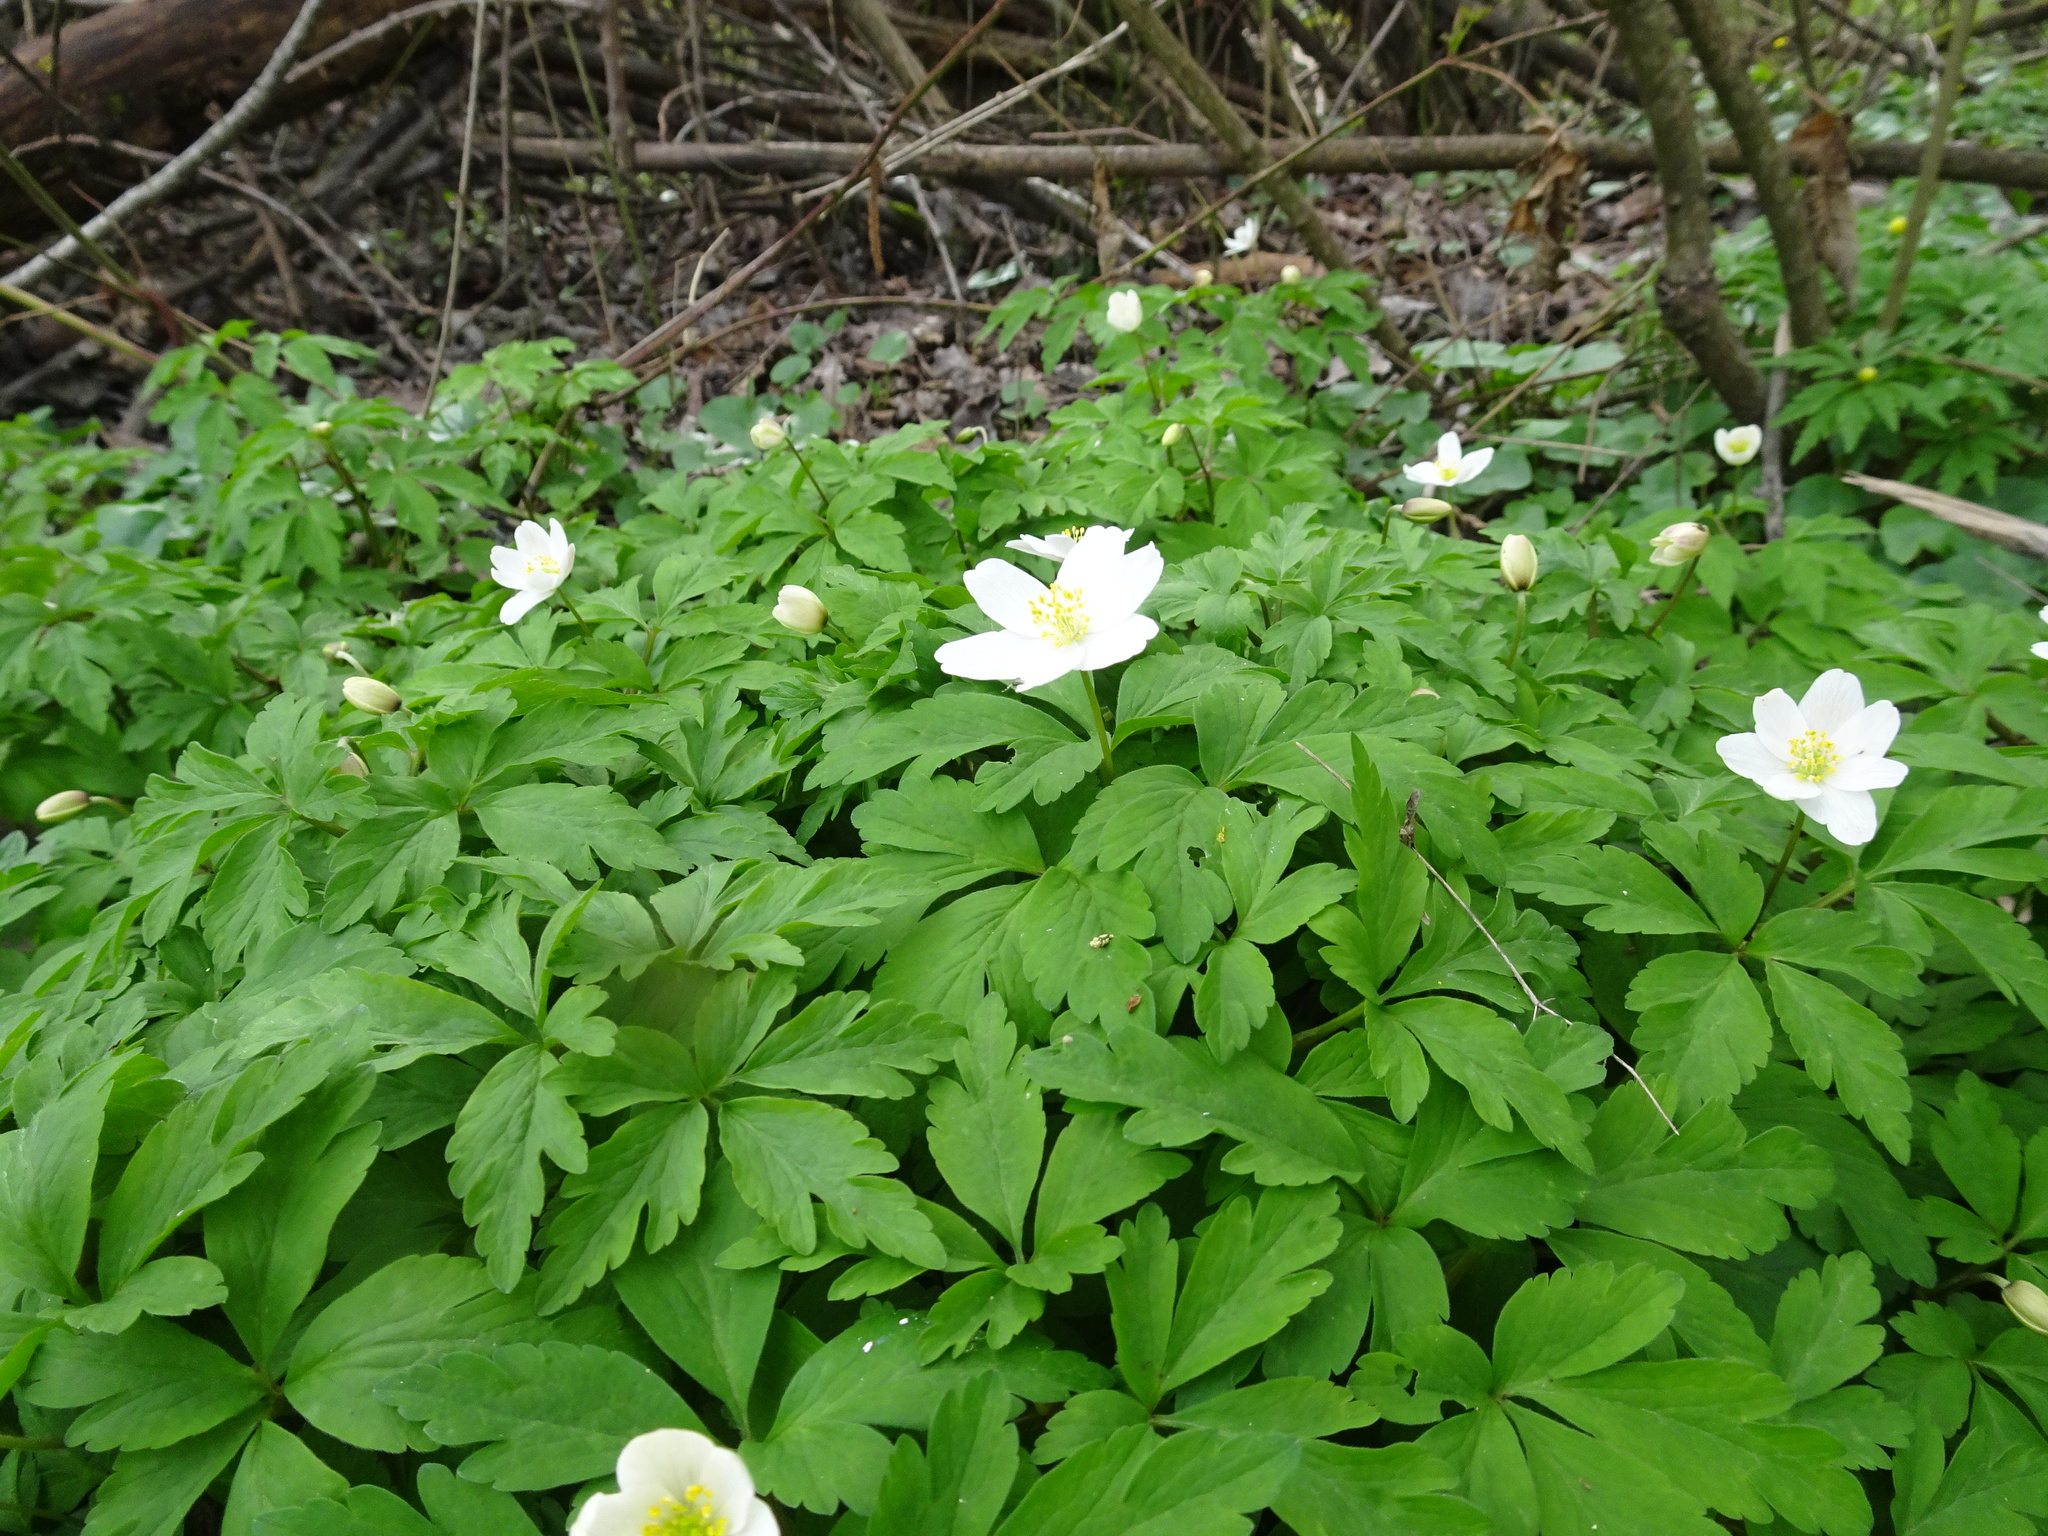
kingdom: Plantae
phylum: Tracheophyta
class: Magnoliopsida
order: Ranunculales
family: Ranunculaceae
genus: Anemone
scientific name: Anemone nemorosa
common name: Wood anemone
